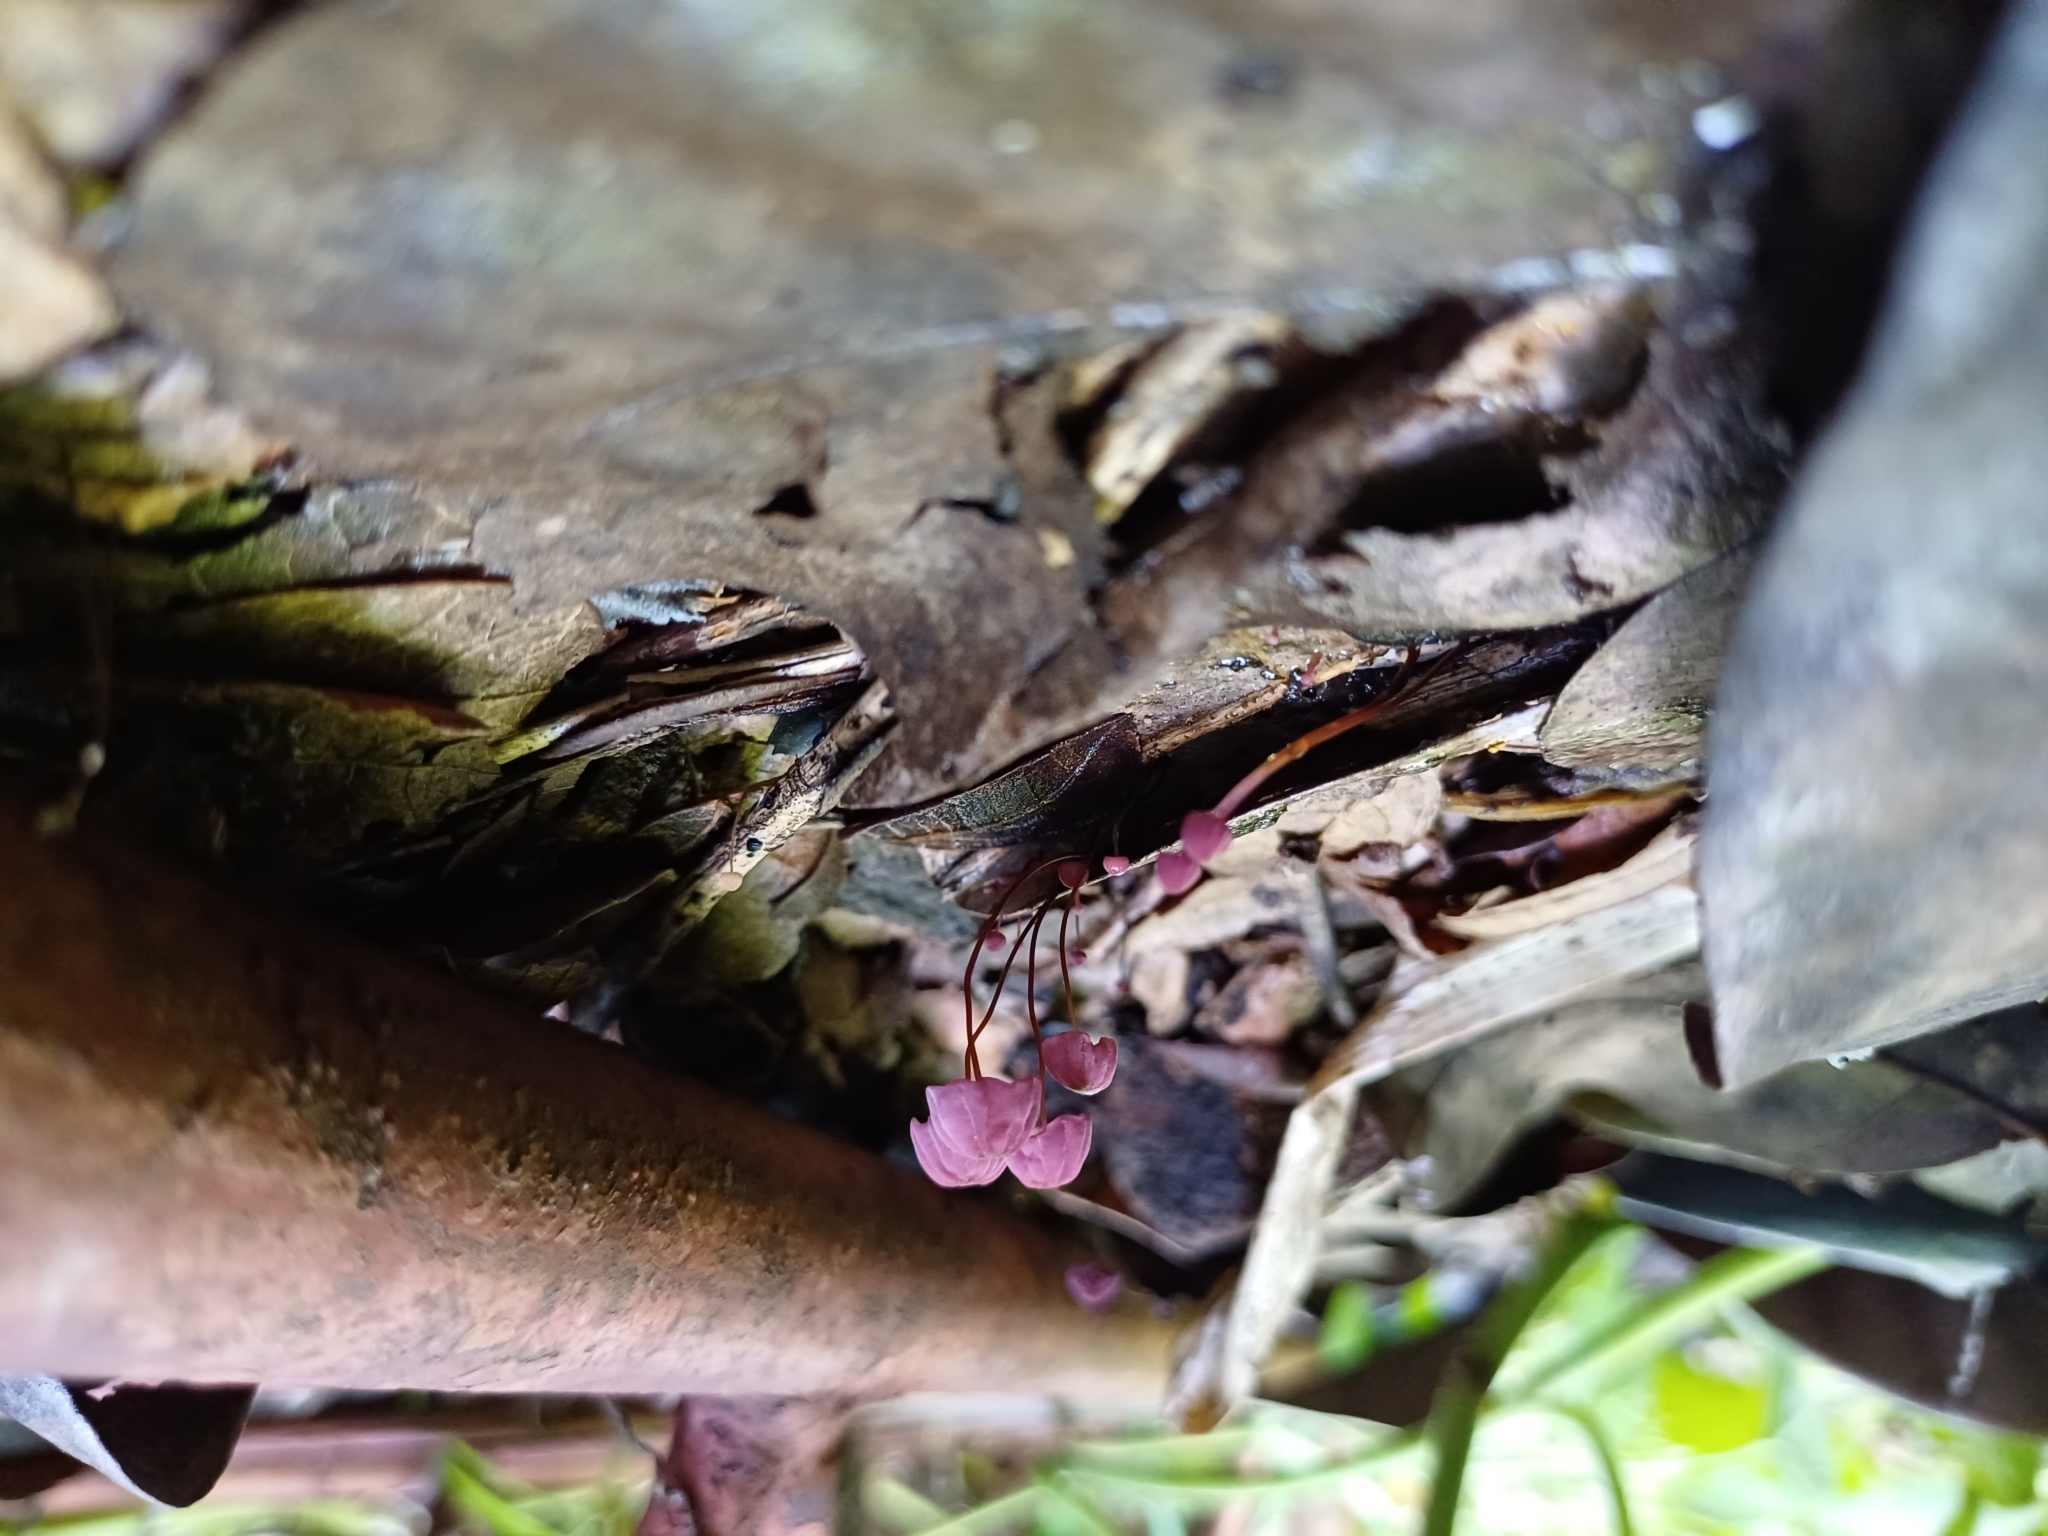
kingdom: Fungi
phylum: Basidiomycota
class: Agaricomycetes
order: Agaricales
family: Marasmiaceae
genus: Marasmius
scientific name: Marasmius haematocephalus
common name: Purple pinwheel
